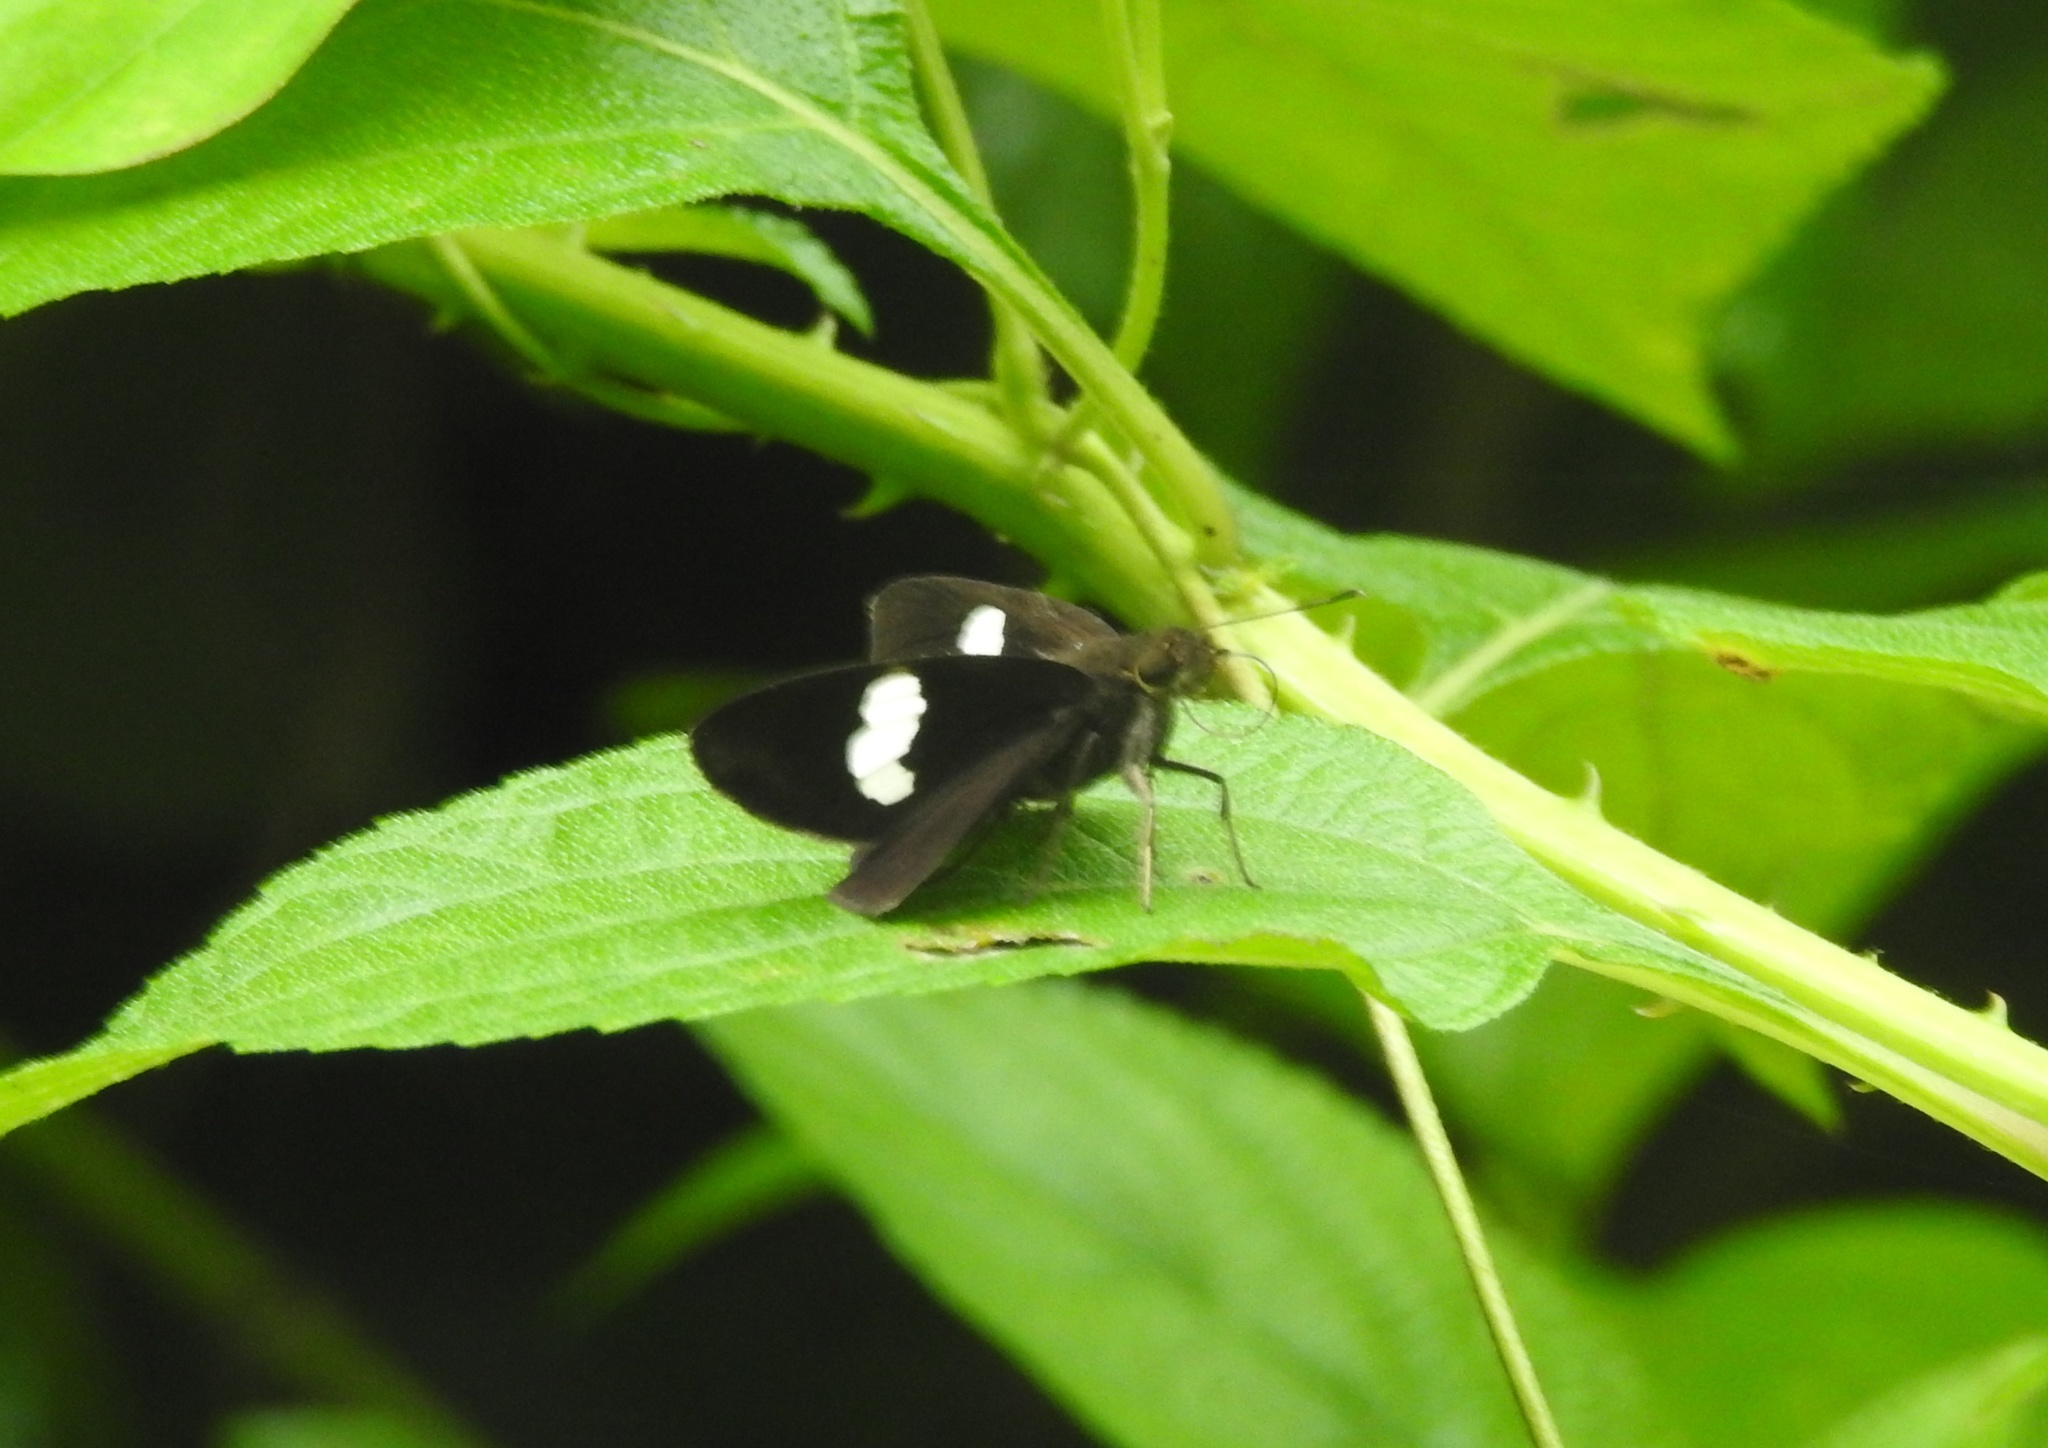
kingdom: Animalia
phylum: Arthropoda
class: Insecta
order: Lepidoptera
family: Hesperiidae
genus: Notocrypta
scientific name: Notocrypta curvifascia
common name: Restricted demon
